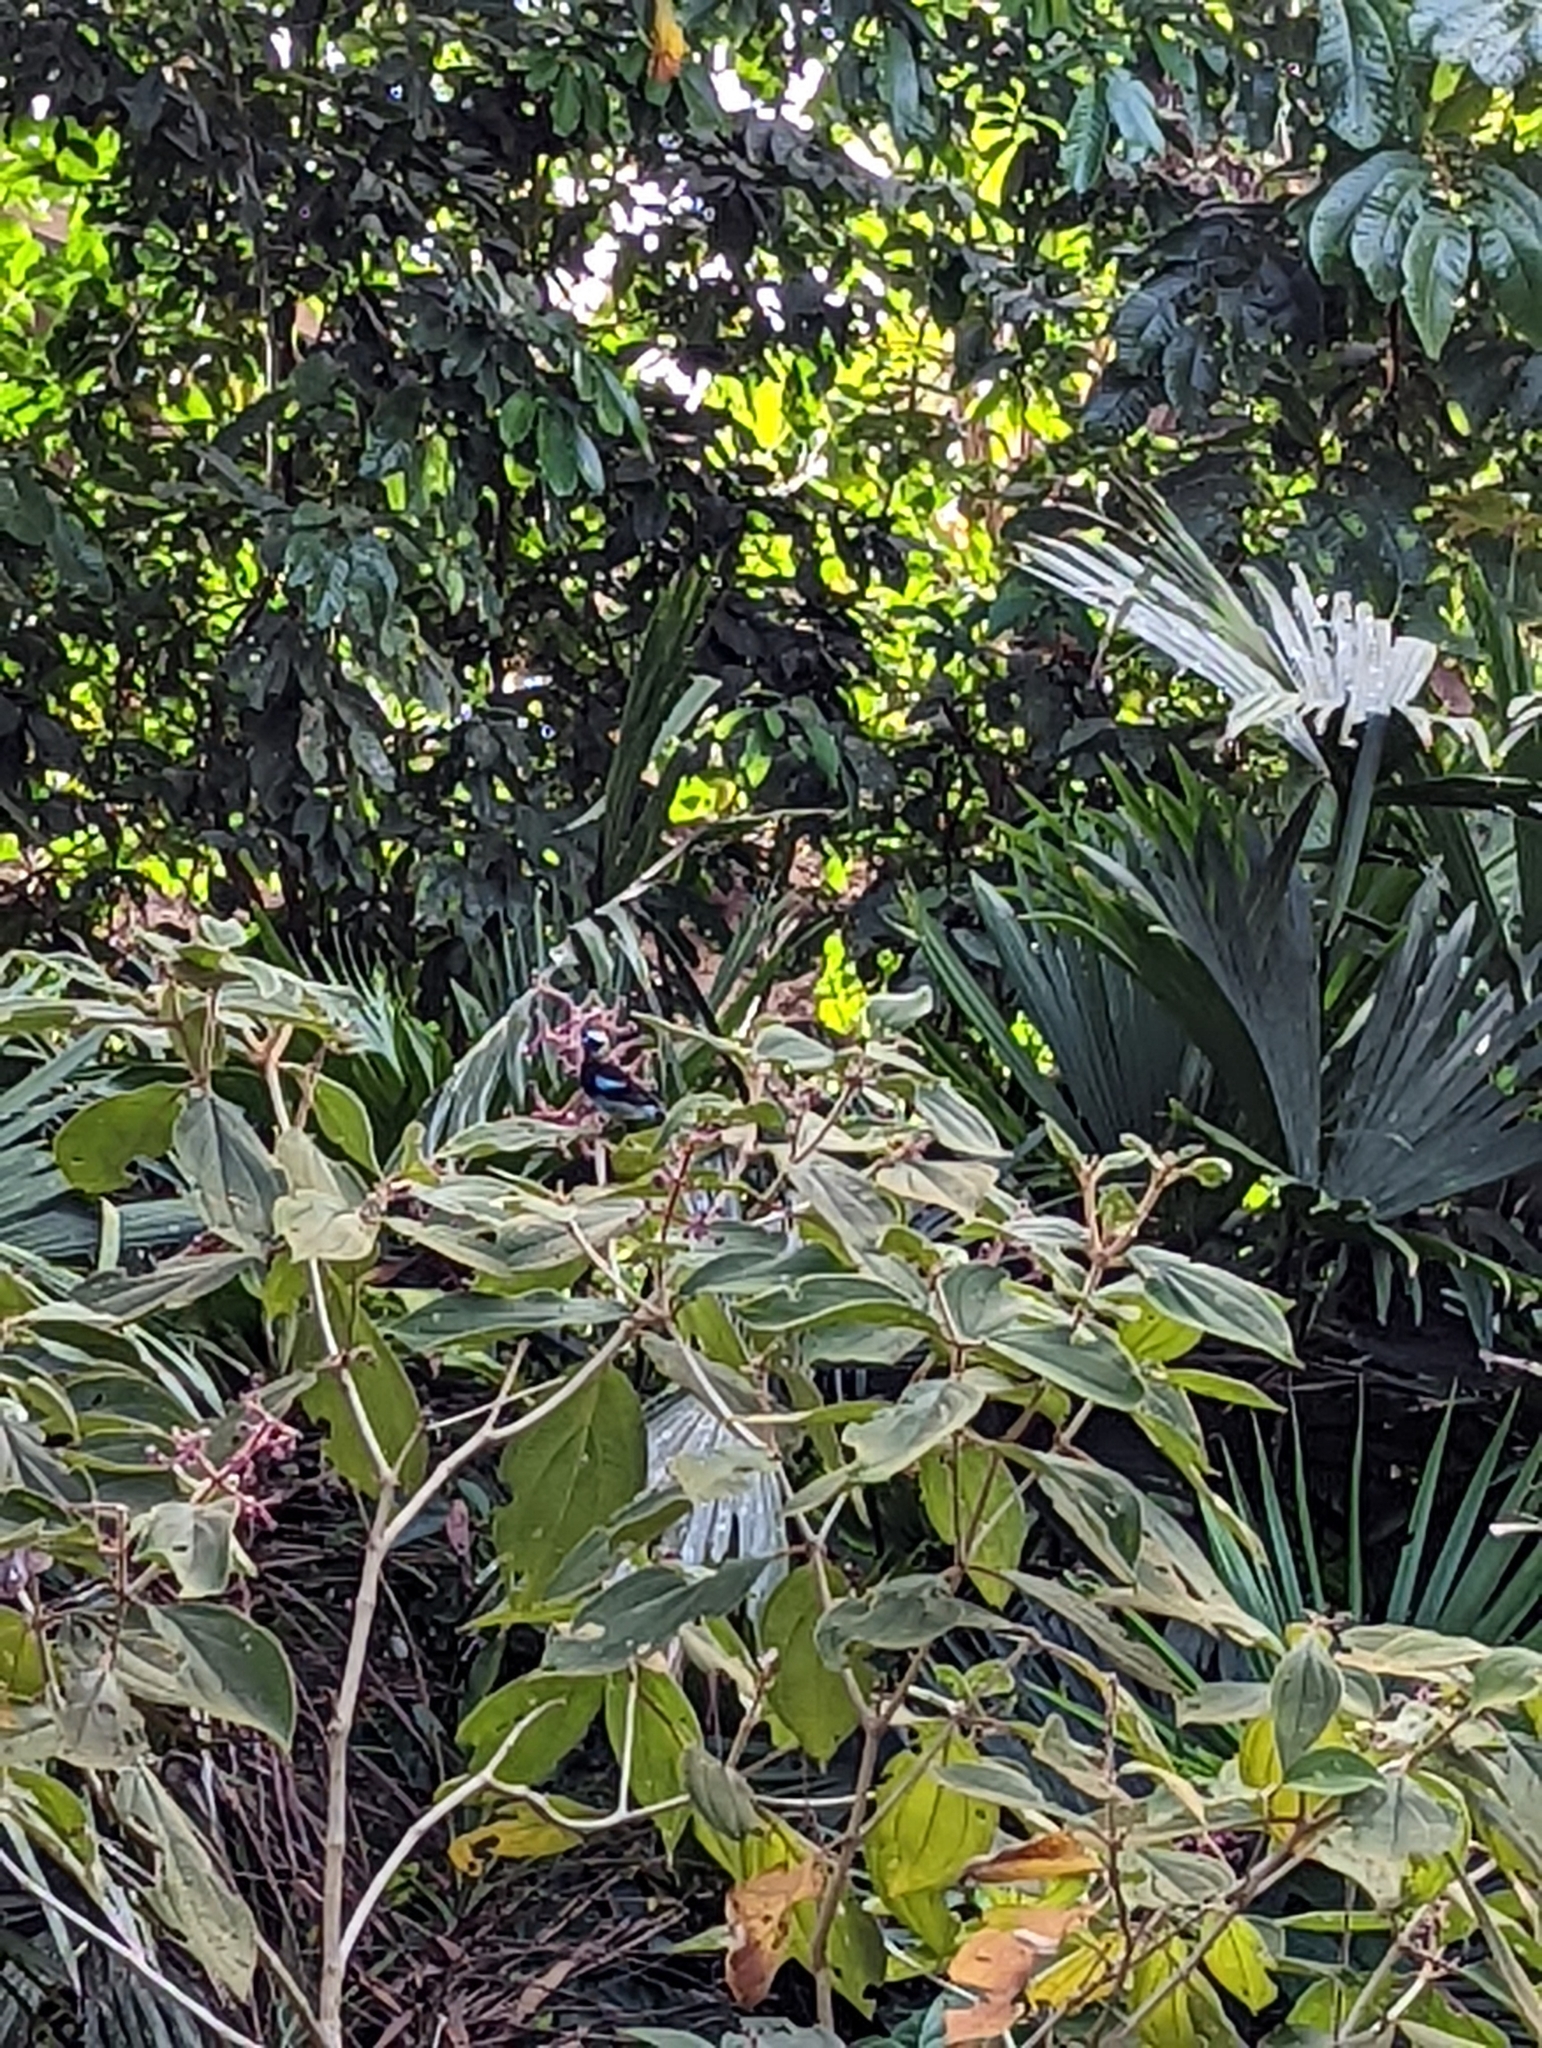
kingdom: Animalia
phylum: Chordata
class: Aves
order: Passeriformes
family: Thraupidae
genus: Stilpnia
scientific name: Stilpnia larvata
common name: Golden-hooded tanager
